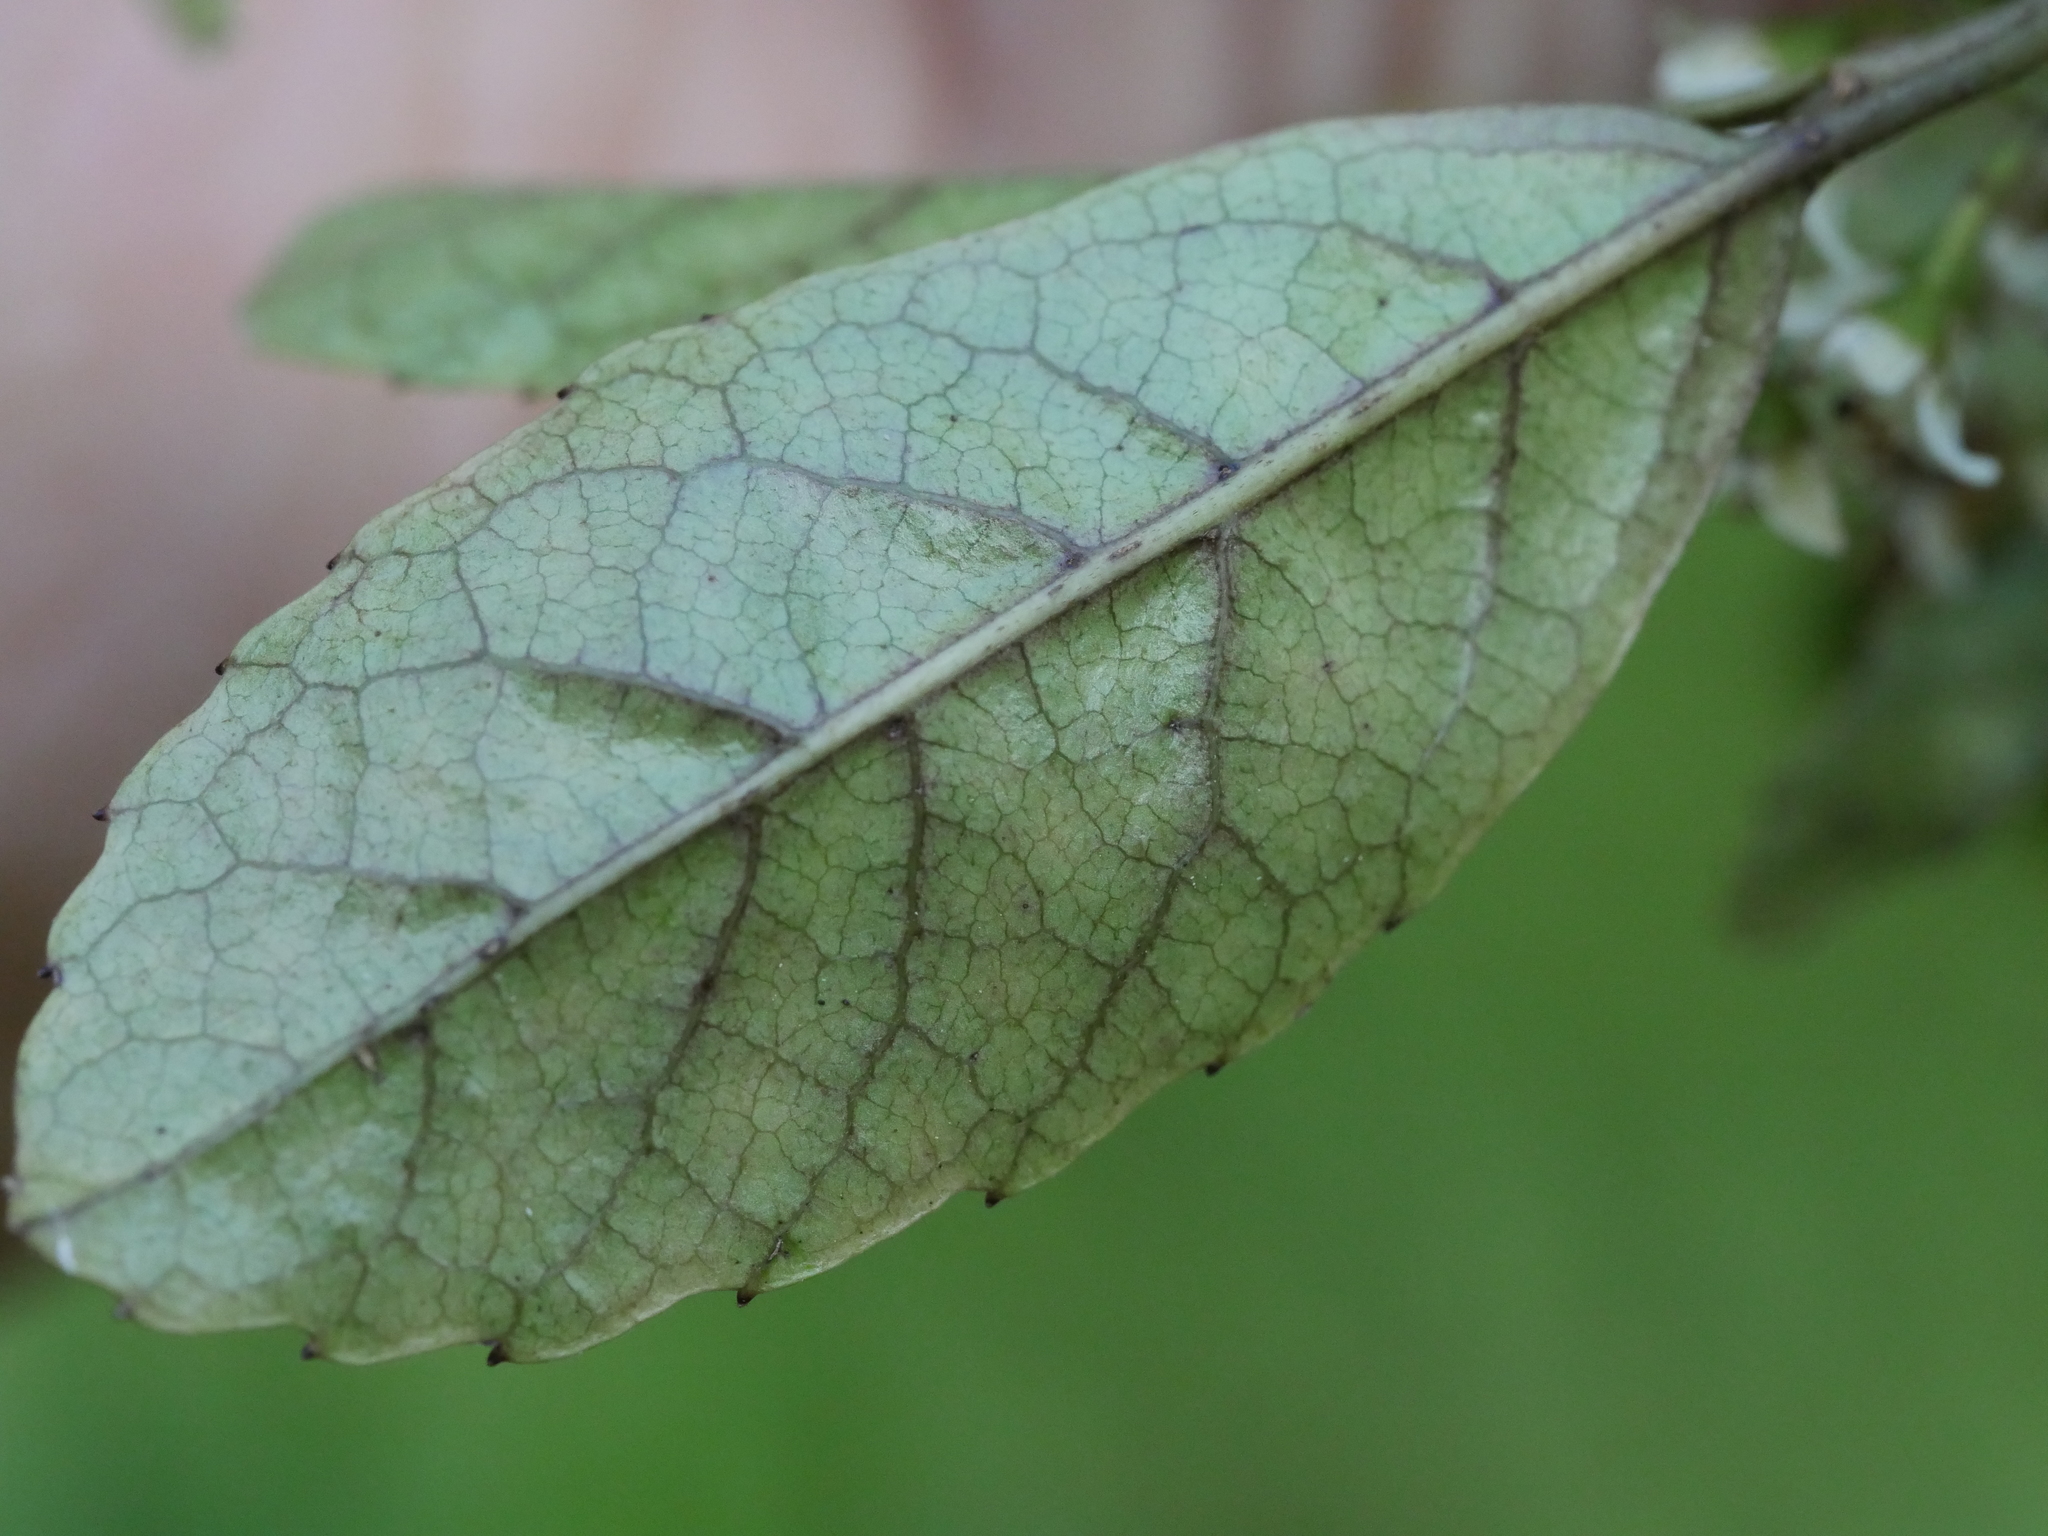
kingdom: Plantae
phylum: Tracheophyta
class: Magnoliopsida
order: Asterales
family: Rousseaceae
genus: Carpodetus
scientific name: Carpodetus serratus
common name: White mapau
